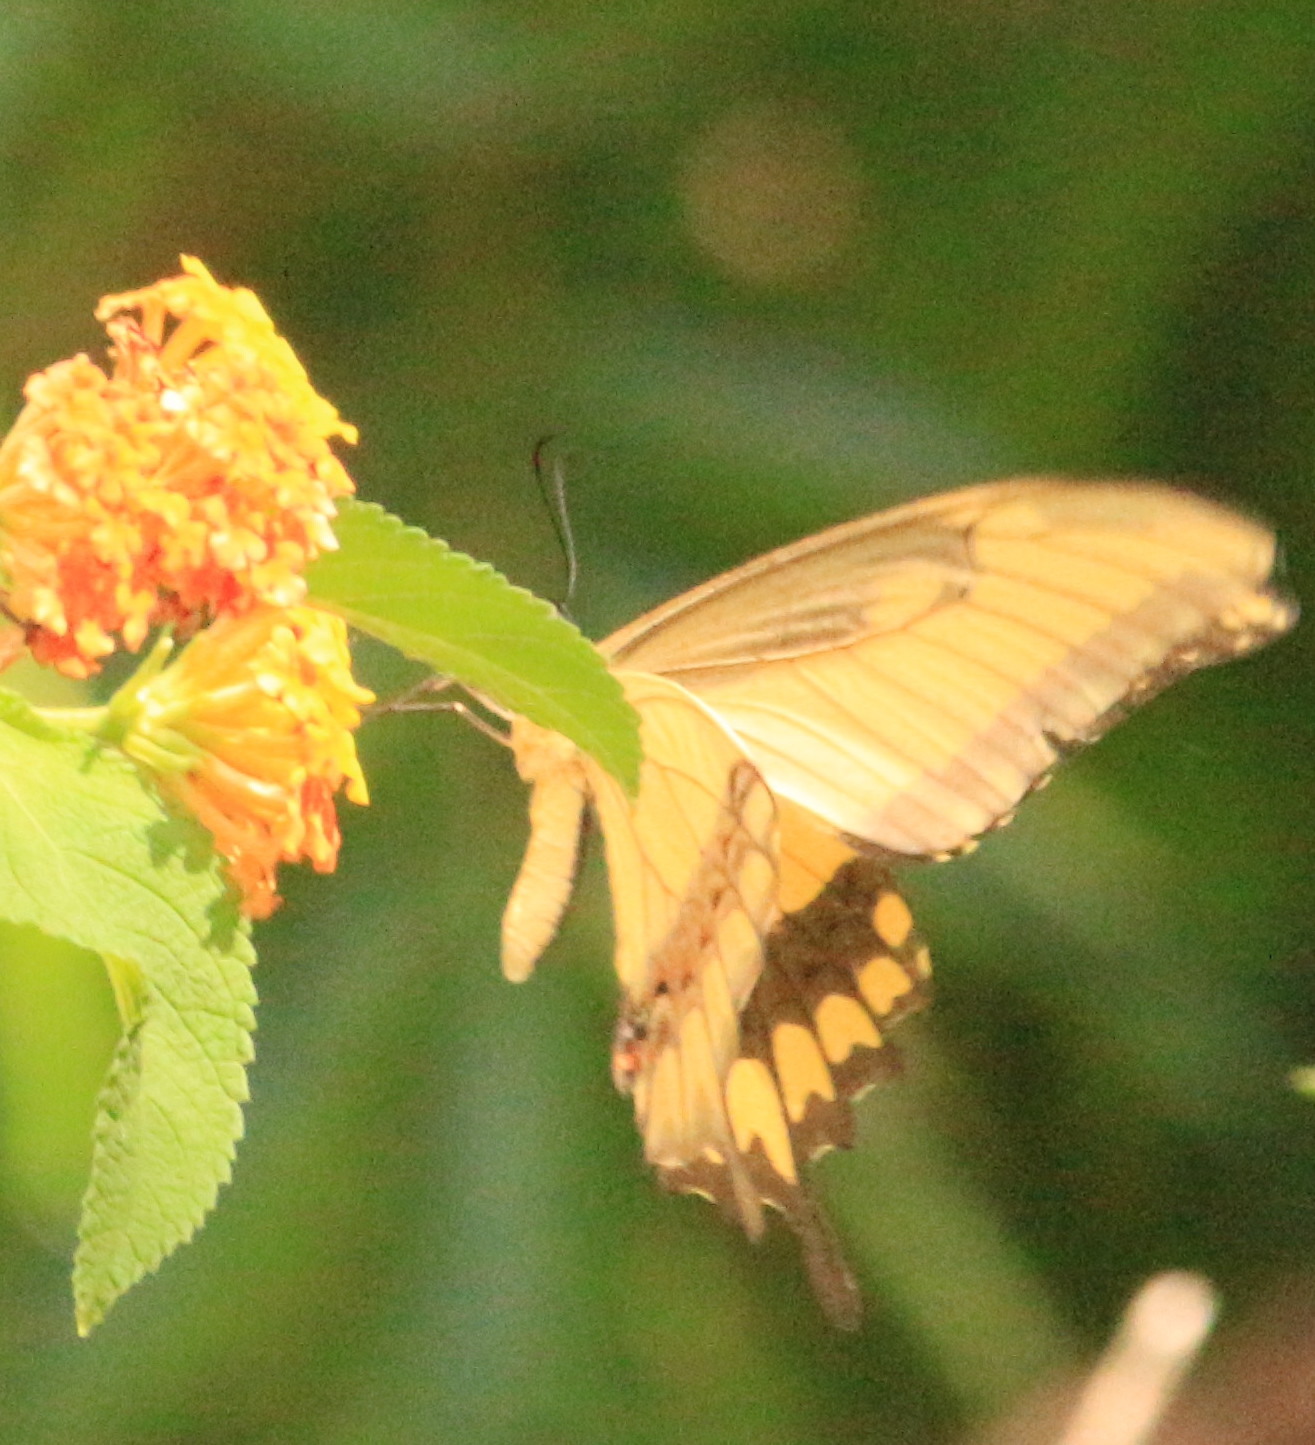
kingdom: Animalia
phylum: Arthropoda
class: Insecta
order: Lepidoptera
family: Papilionidae
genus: Papilio
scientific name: Papilio astyalus
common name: Astyalus swallowtail
